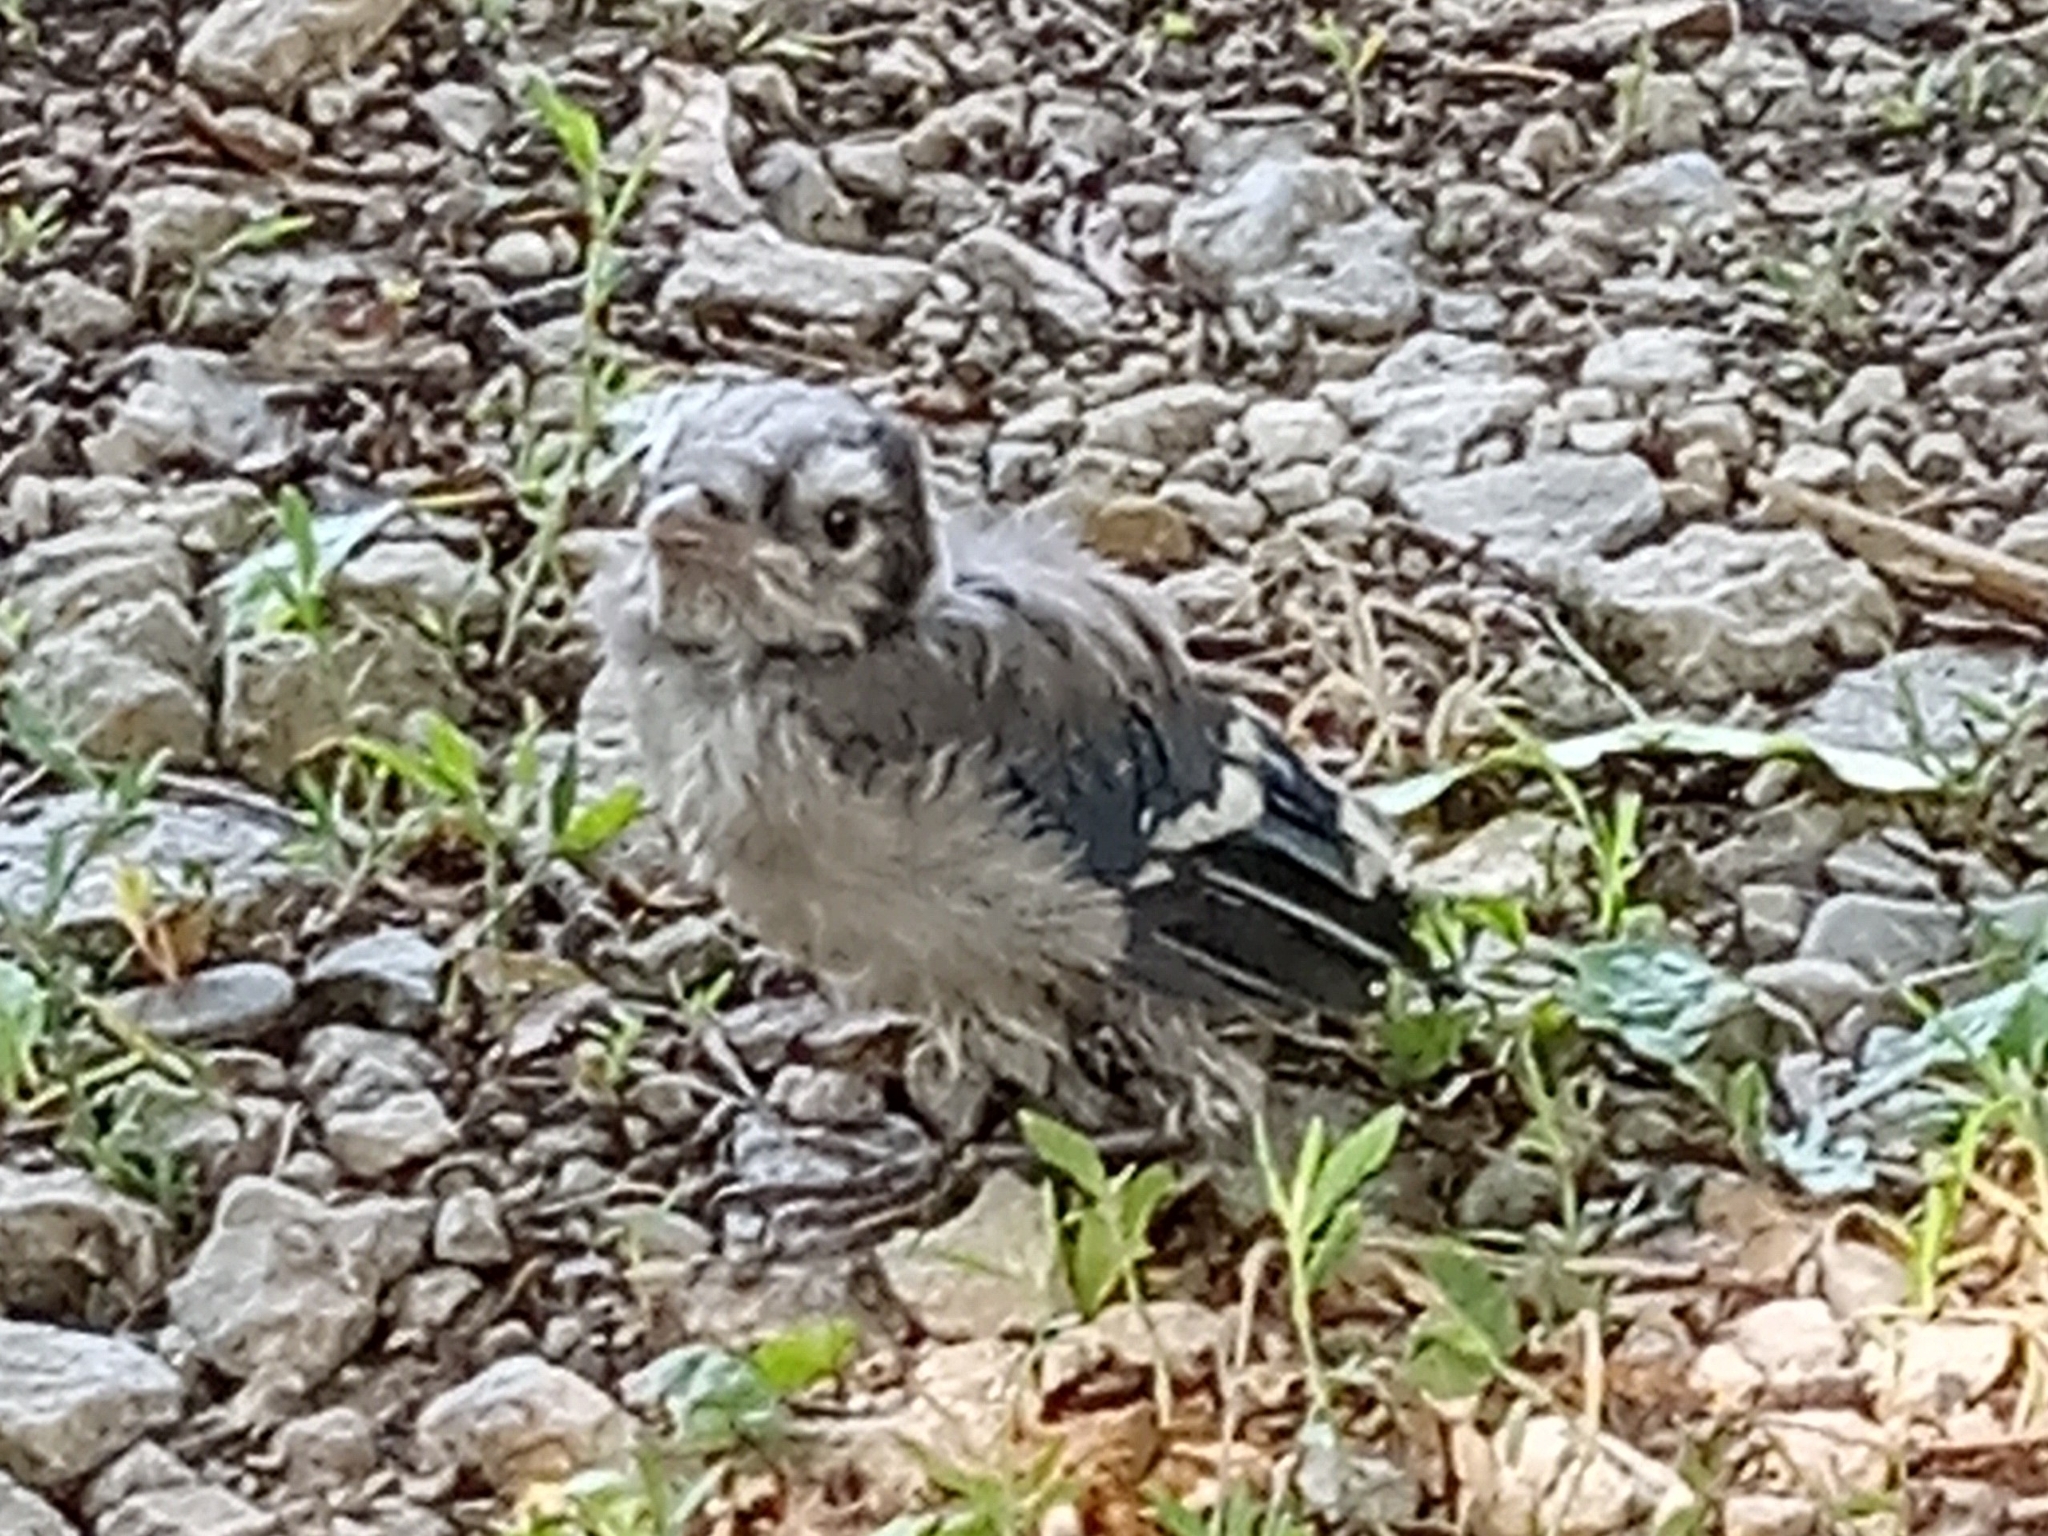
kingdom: Animalia
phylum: Chordata
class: Aves
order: Passeriformes
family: Corvidae
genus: Cyanocitta
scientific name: Cyanocitta cristata
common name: Blue jay
